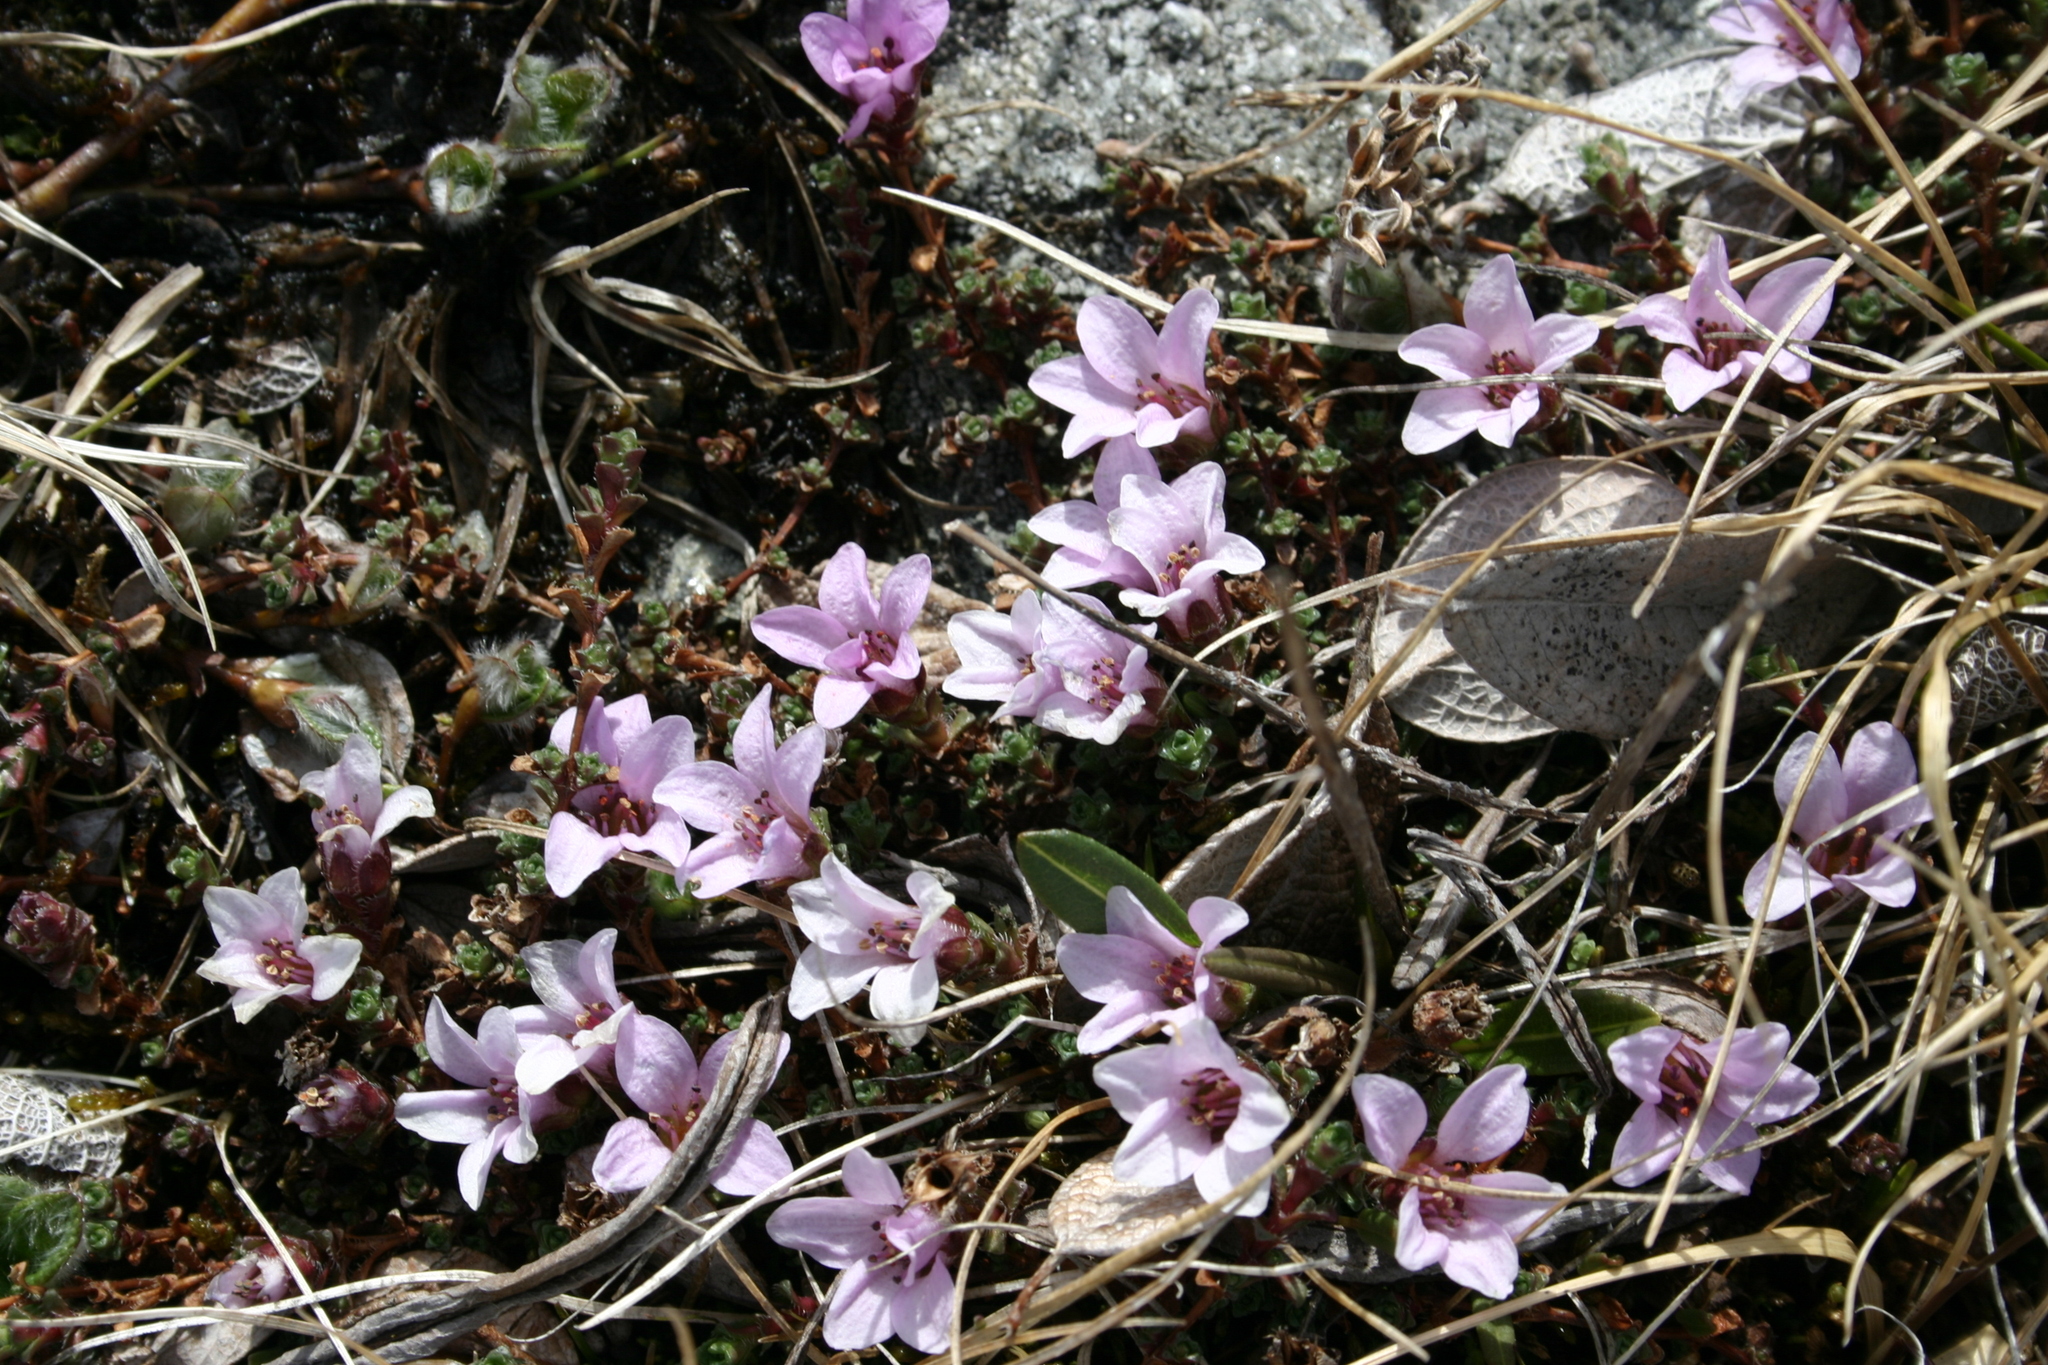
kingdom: Plantae
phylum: Tracheophyta
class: Magnoliopsida
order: Saxifragales
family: Saxifragaceae
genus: Saxifraga
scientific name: Saxifraga oppositifolia
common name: Purple saxifrage
